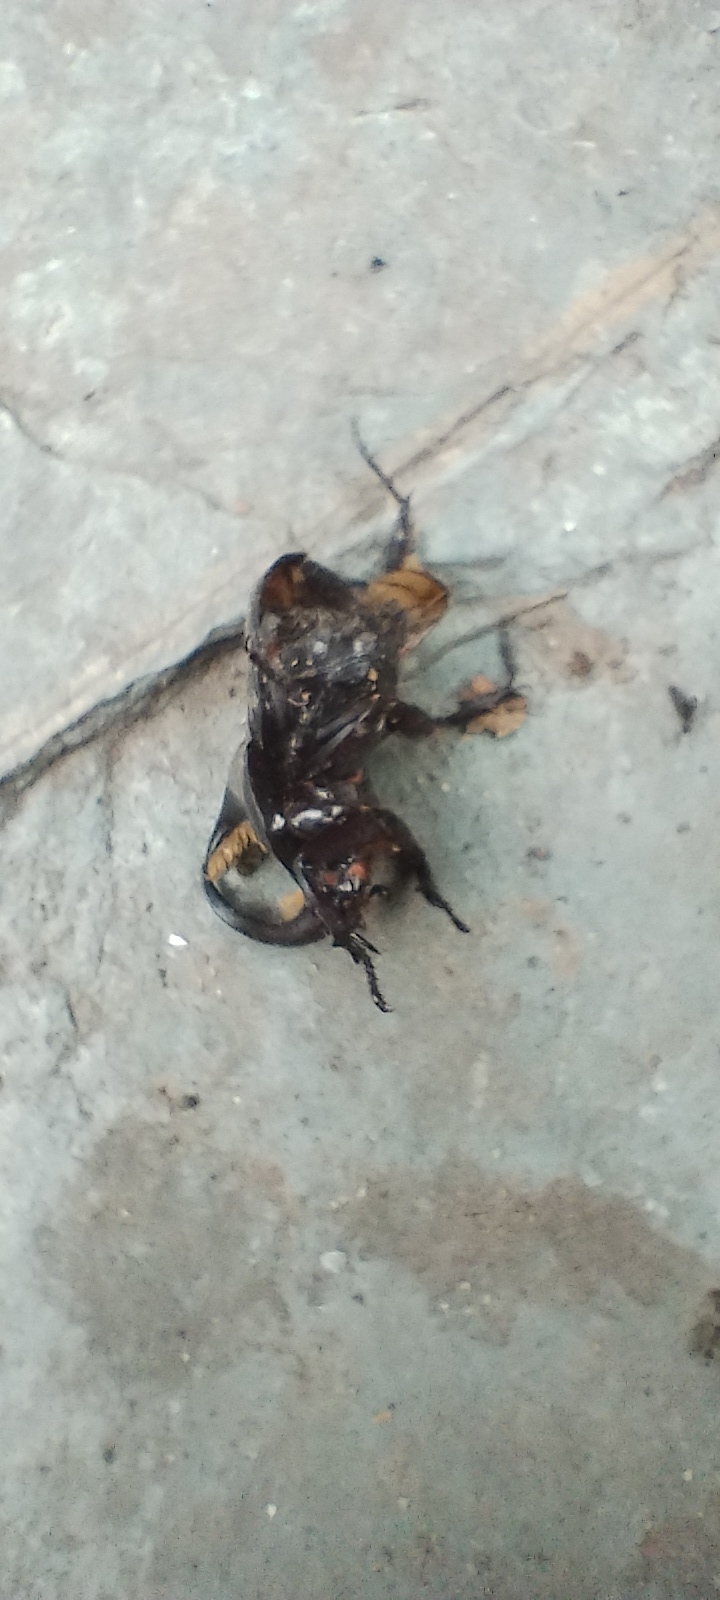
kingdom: Animalia
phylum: Arthropoda
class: Insecta
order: Coleoptera
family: Scarabaeidae
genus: Diloboderus
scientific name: Diloboderus abderus
